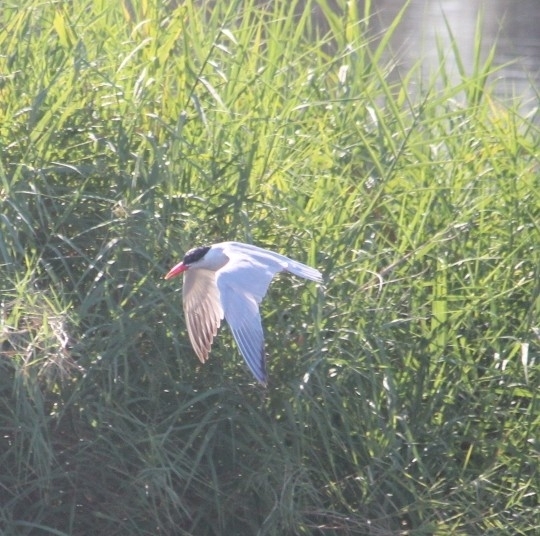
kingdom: Animalia
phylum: Chordata
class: Aves
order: Charadriiformes
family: Laridae
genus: Hydroprogne
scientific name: Hydroprogne caspia
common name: Caspian tern
